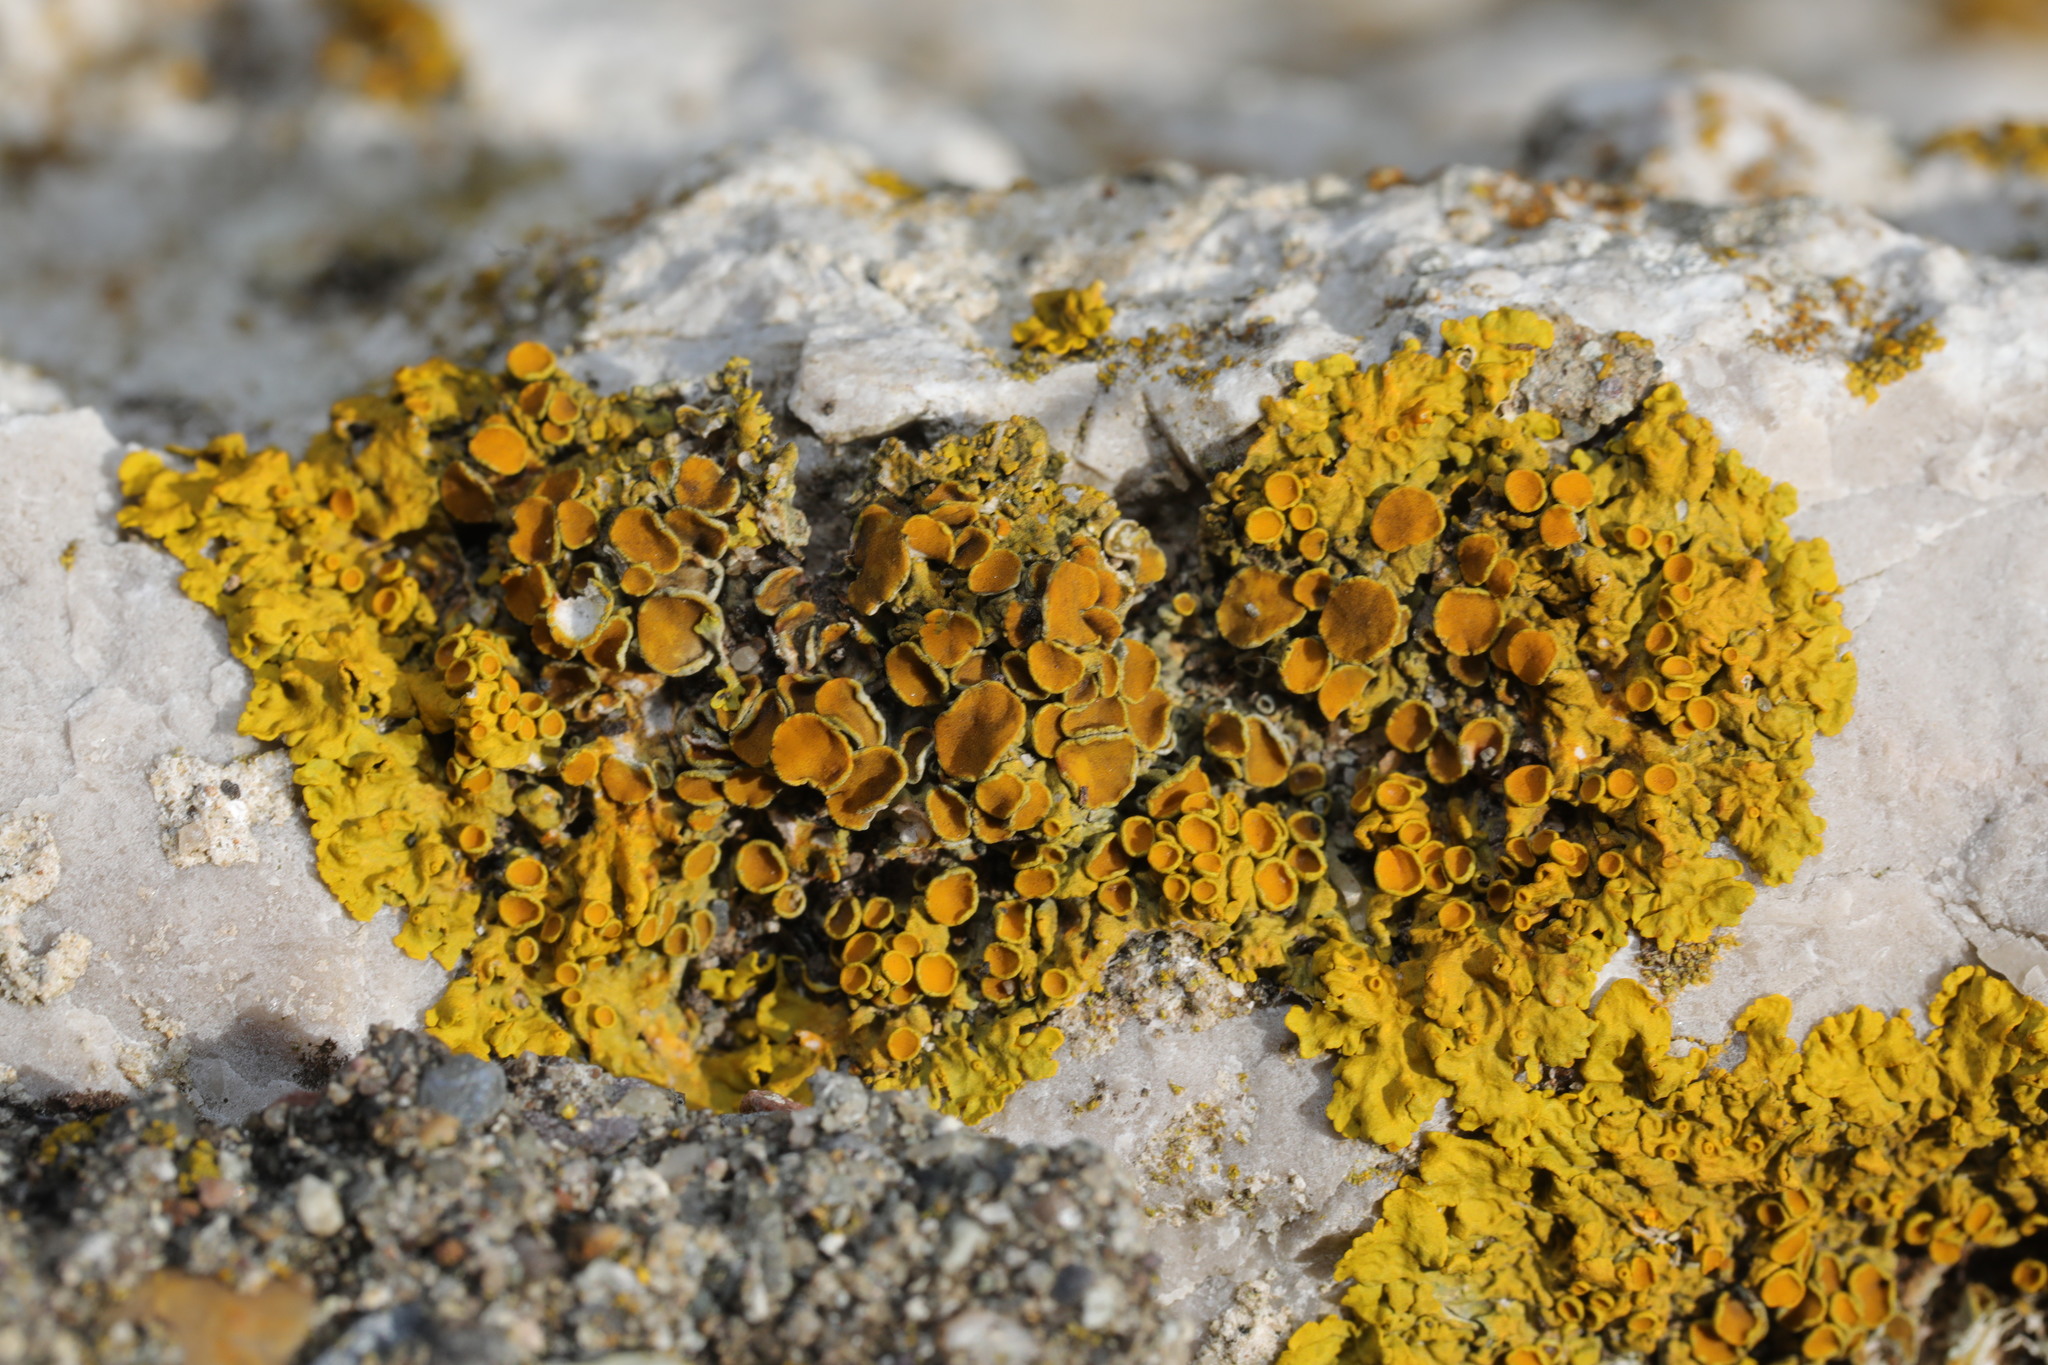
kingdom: Fungi
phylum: Ascomycota
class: Lecanoromycetes
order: Teloschistales
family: Teloschistaceae
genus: Xanthoria
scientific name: Xanthoria parietina
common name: Common orange lichen
